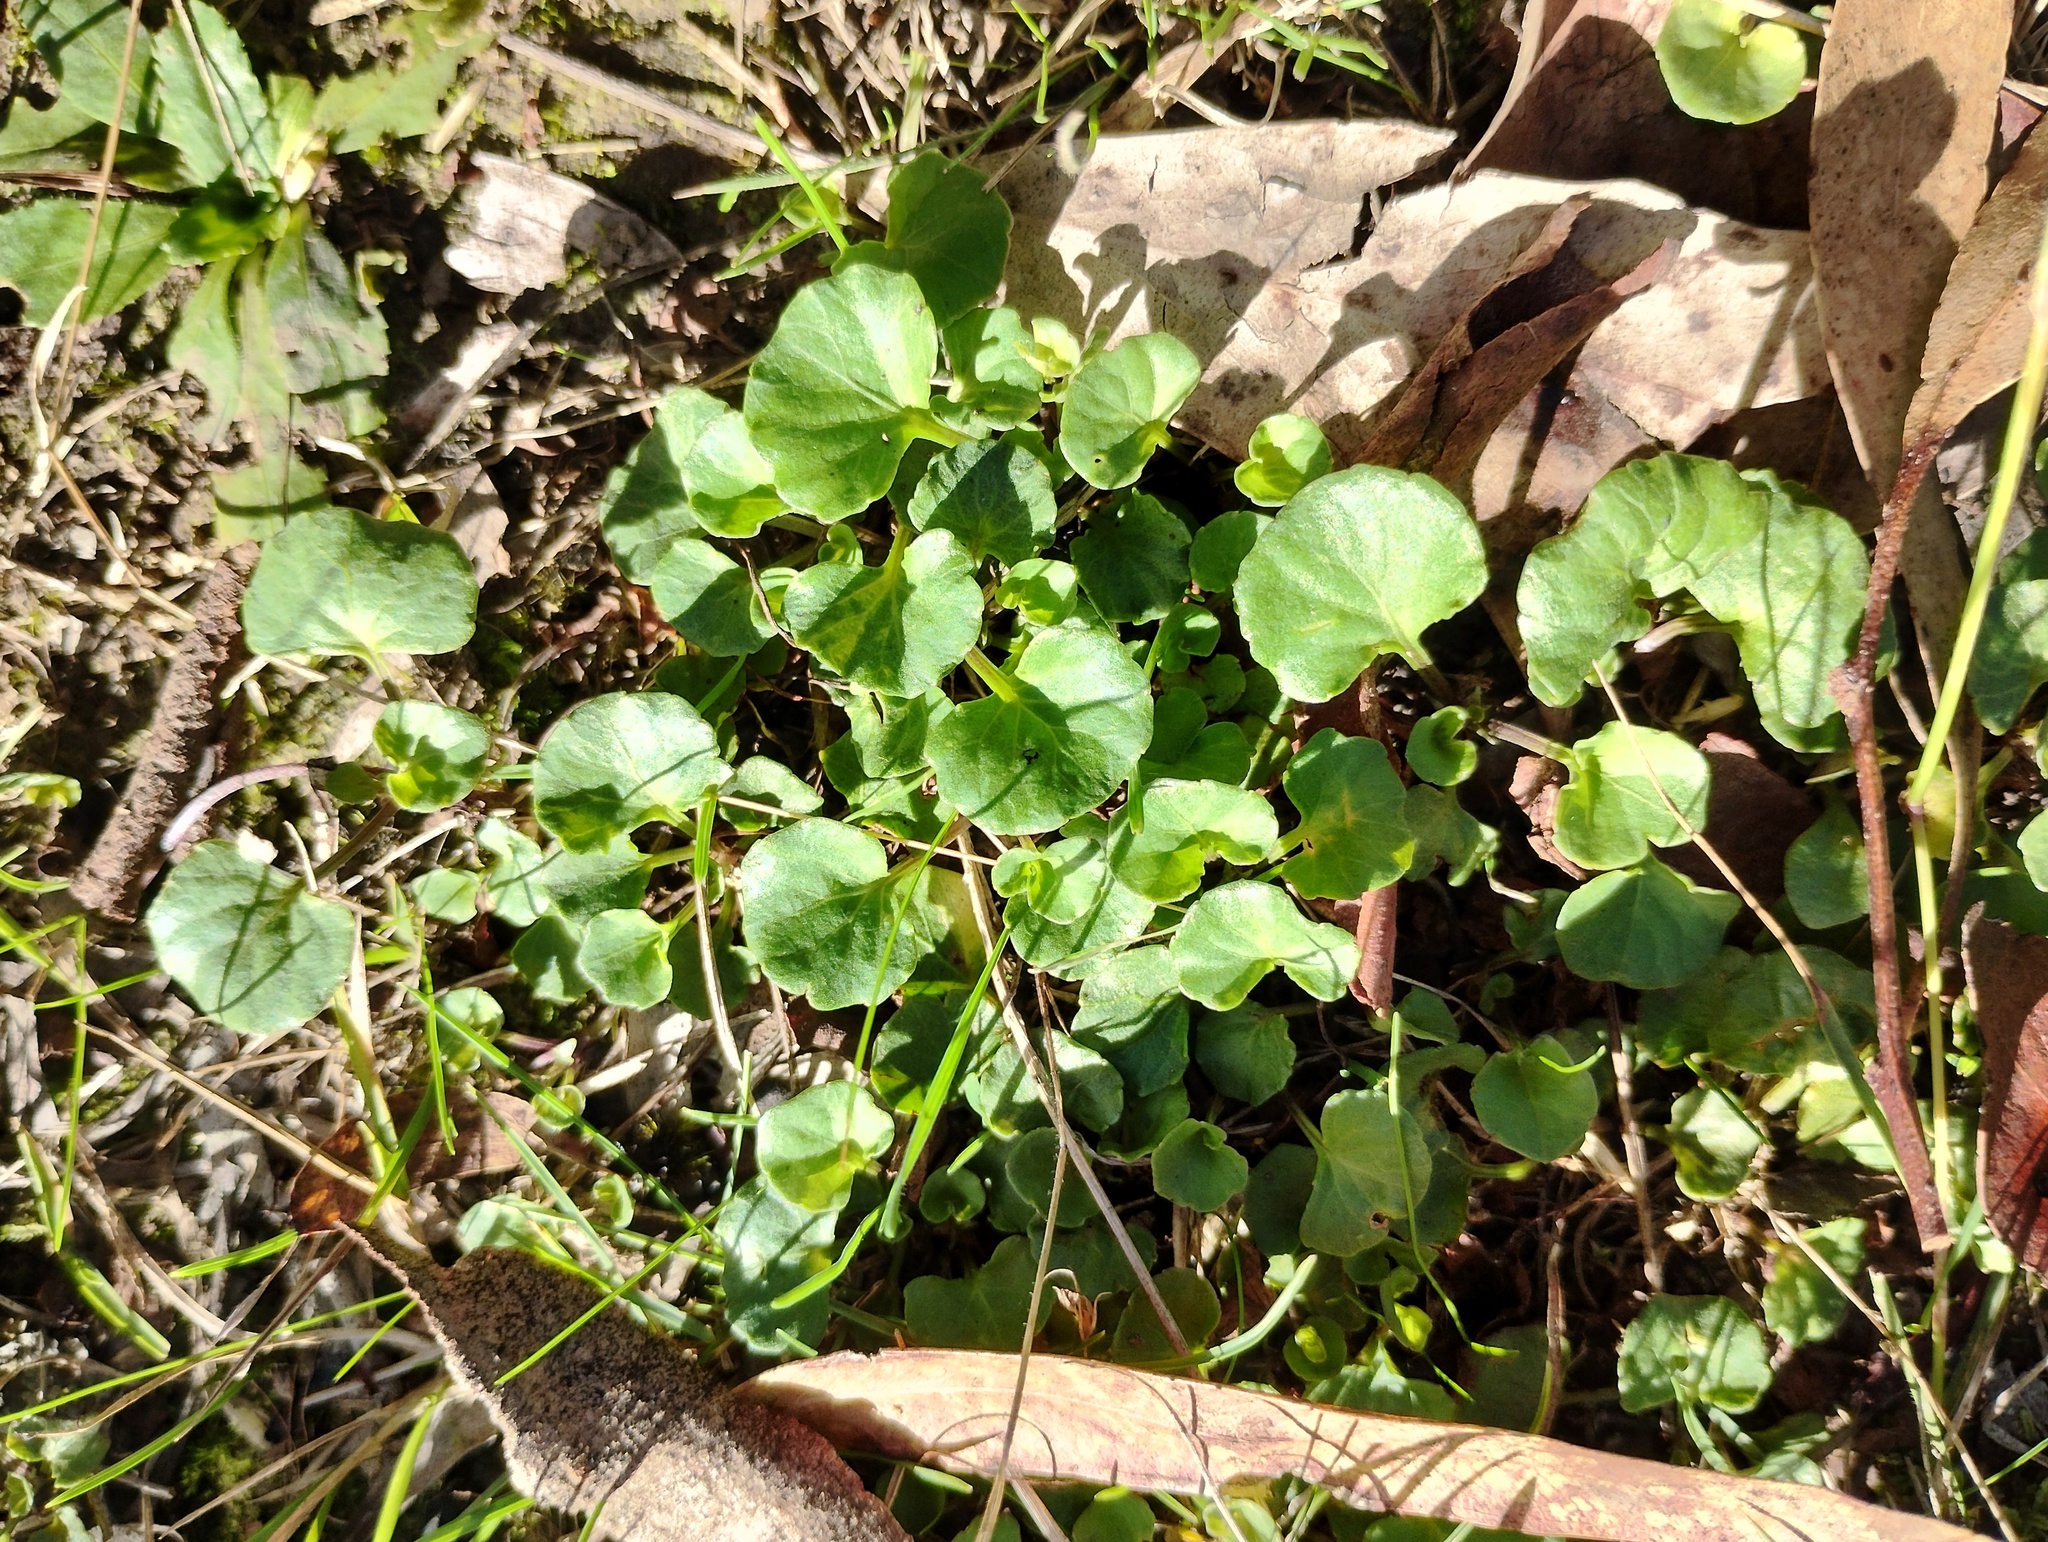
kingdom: Plantae
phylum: Tracheophyta
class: Magnoliopsida
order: Malpighiales
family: Violaceae
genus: Viola
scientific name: Viola hederacea
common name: Australian violet
